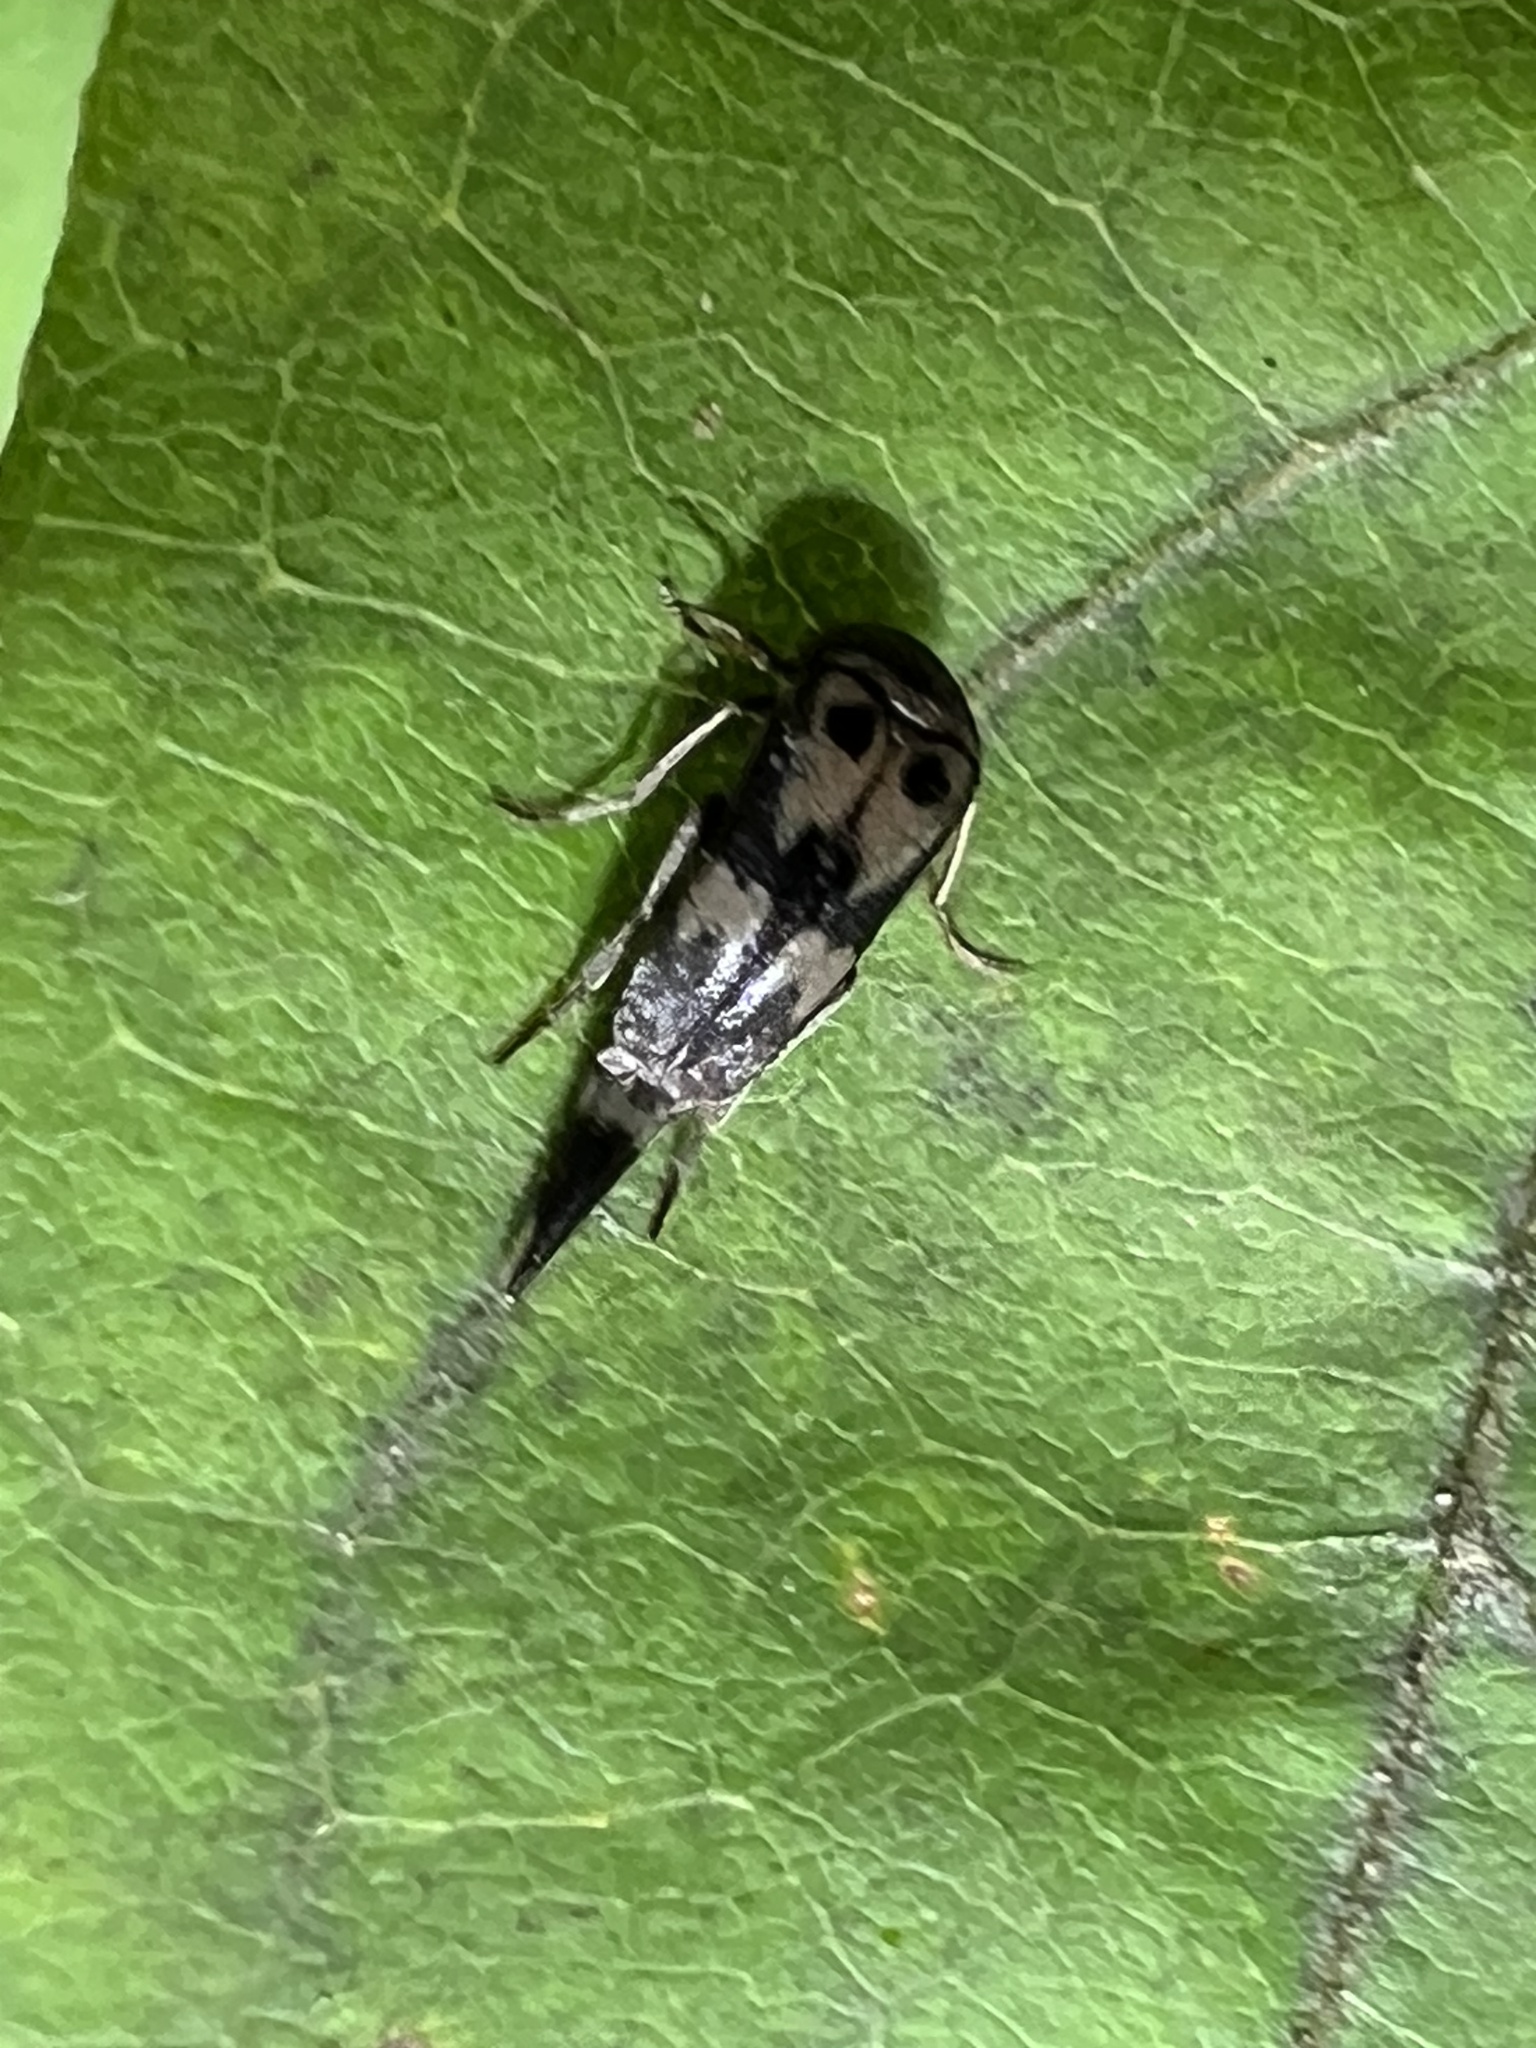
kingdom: Animalia
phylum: Arthropoda
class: Insecta
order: Coleoptera
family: Mordellidae
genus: Glipa
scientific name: Glipa oculata
